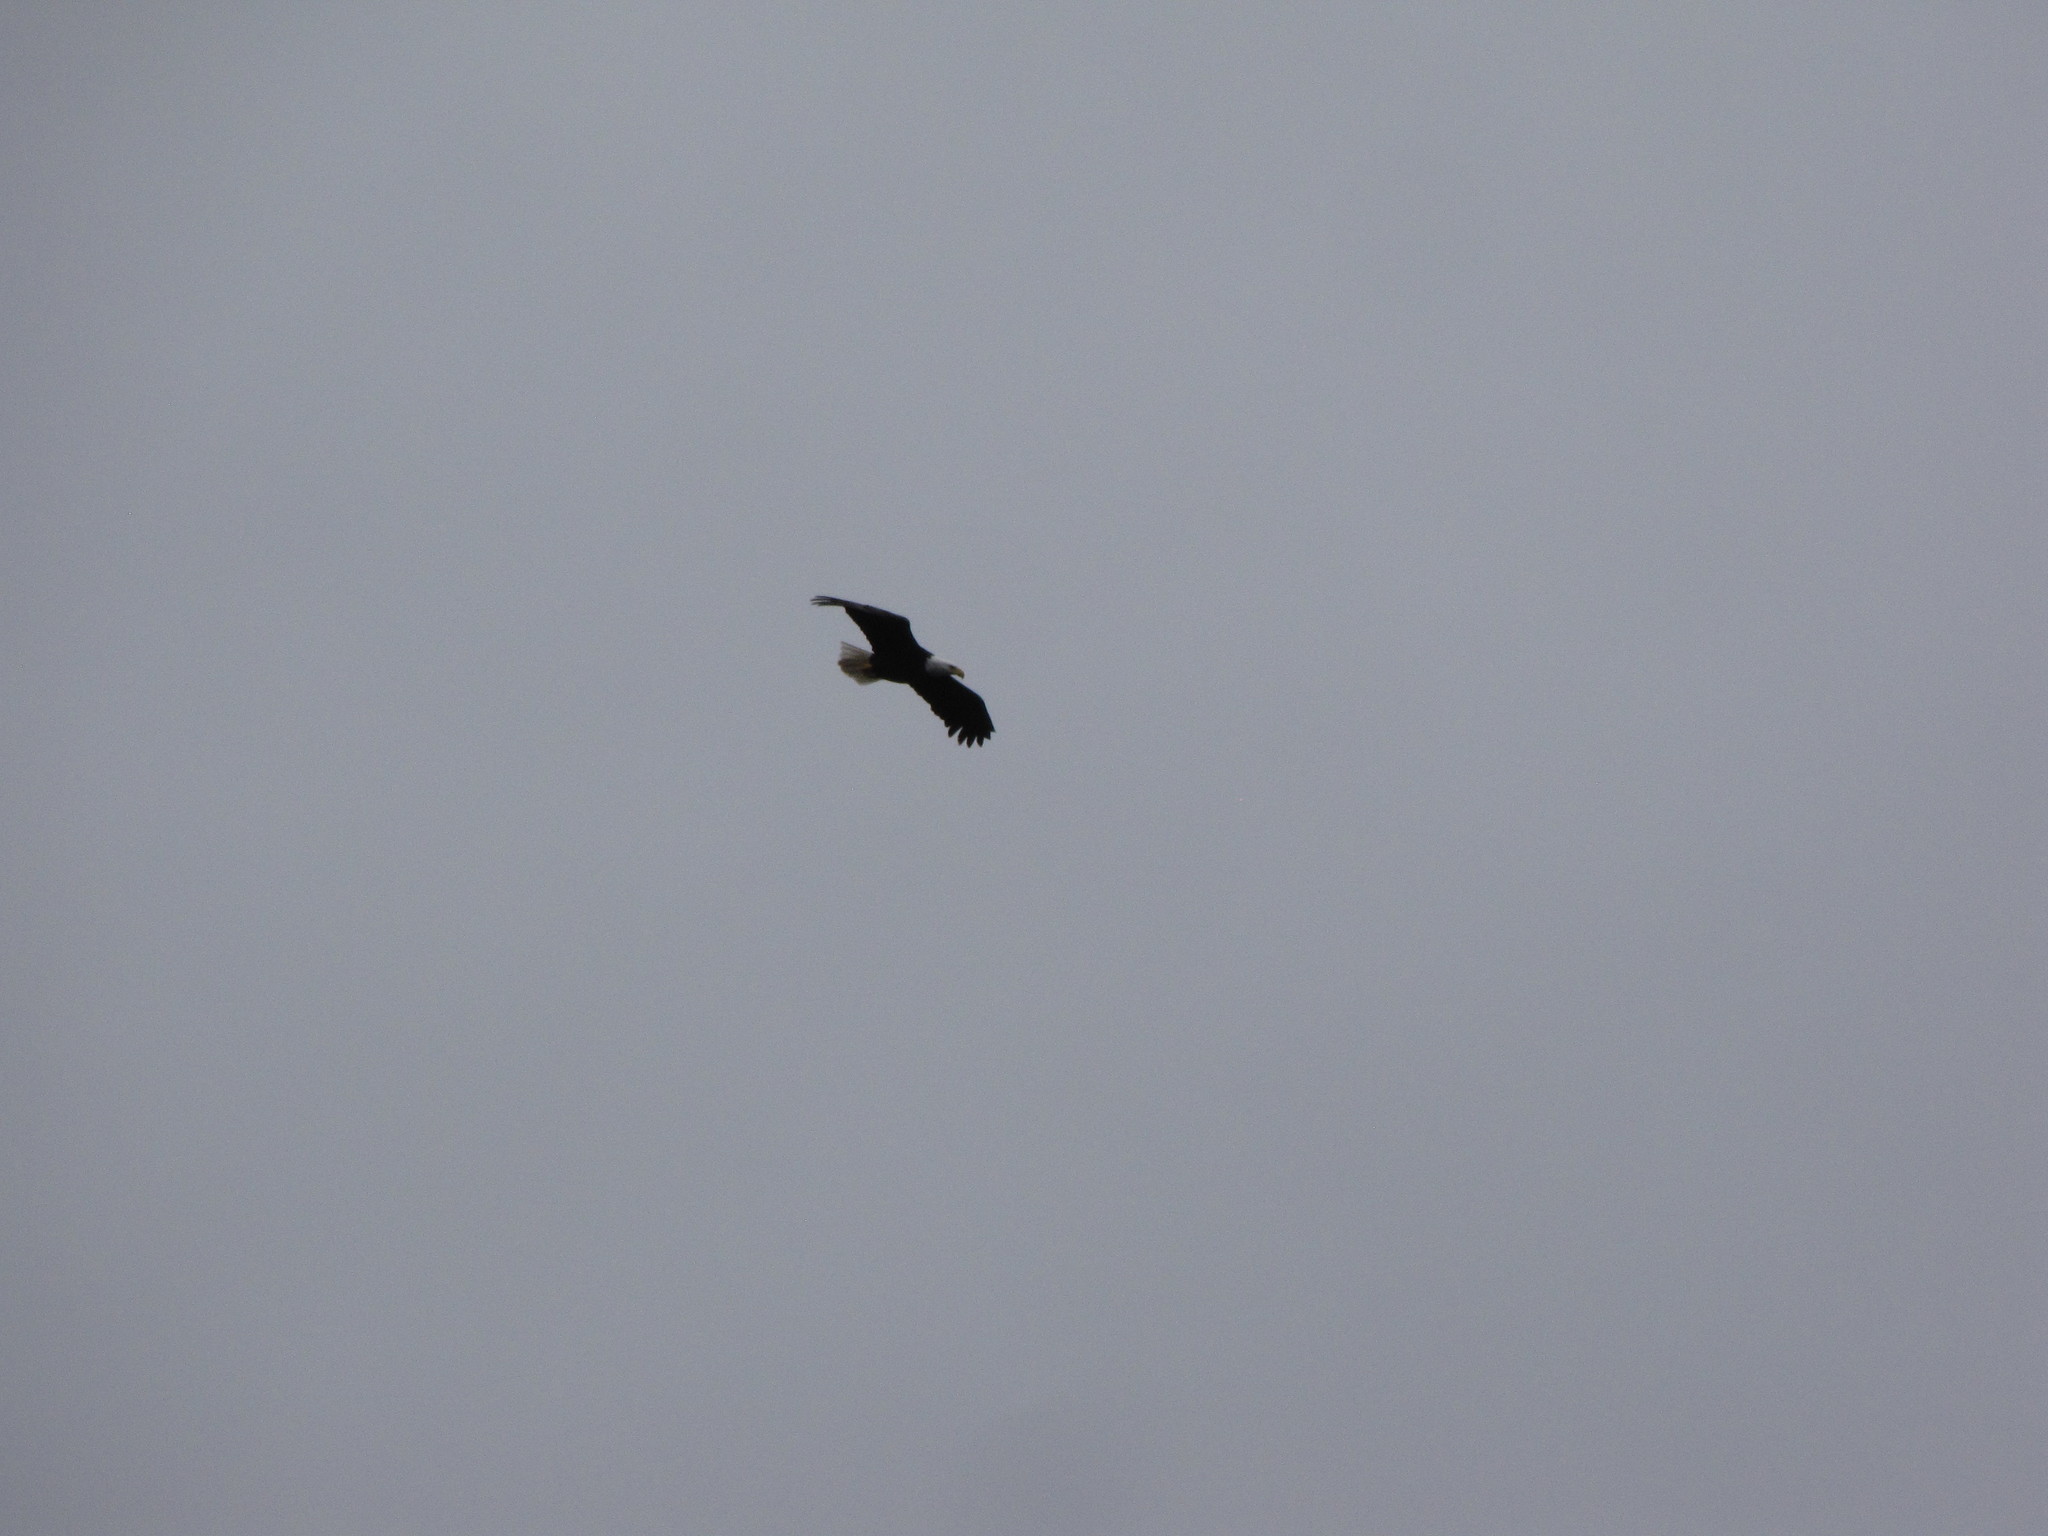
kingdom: Animalia
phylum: Chordata
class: Aves
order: Accipitriformes
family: Accipitridae
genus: Haliaeetus
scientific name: Haliaeetus leucocephalus
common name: Bald eagle
